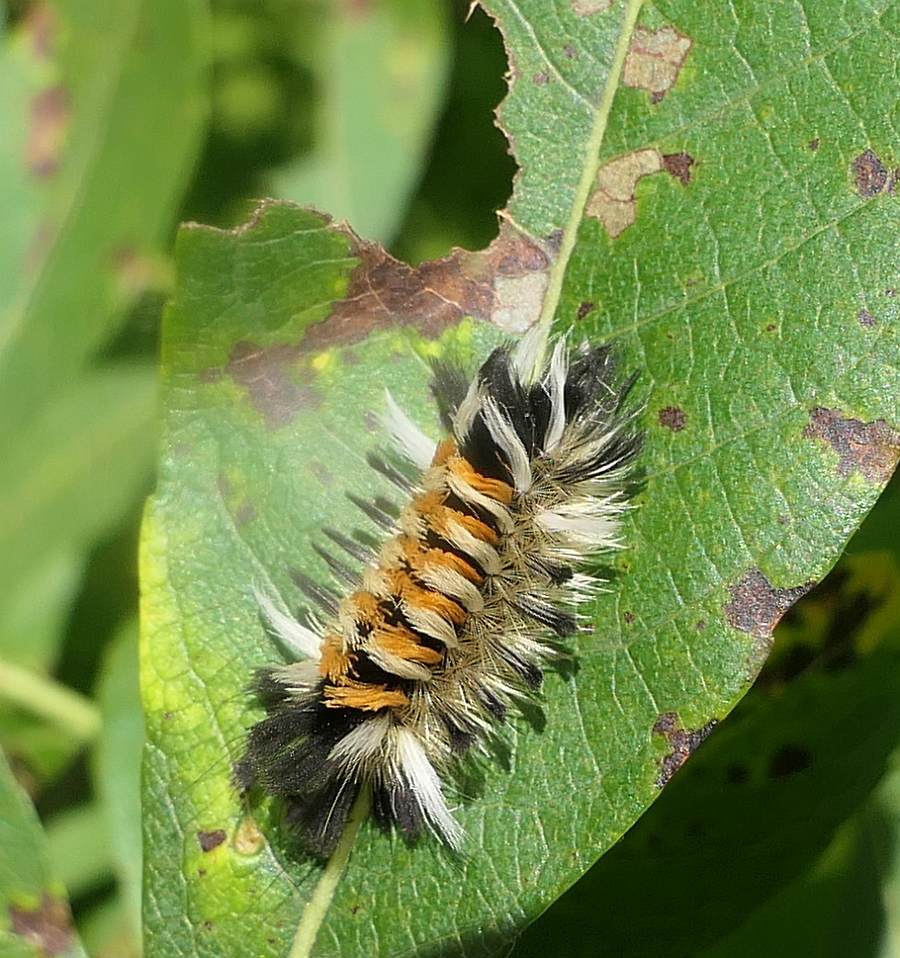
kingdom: Animalia
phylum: Arthropoda
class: Insecta
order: Lepidoptera
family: Erebidae
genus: Euchaetes
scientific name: Euchaetes egle
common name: Milkweed tussock moth
